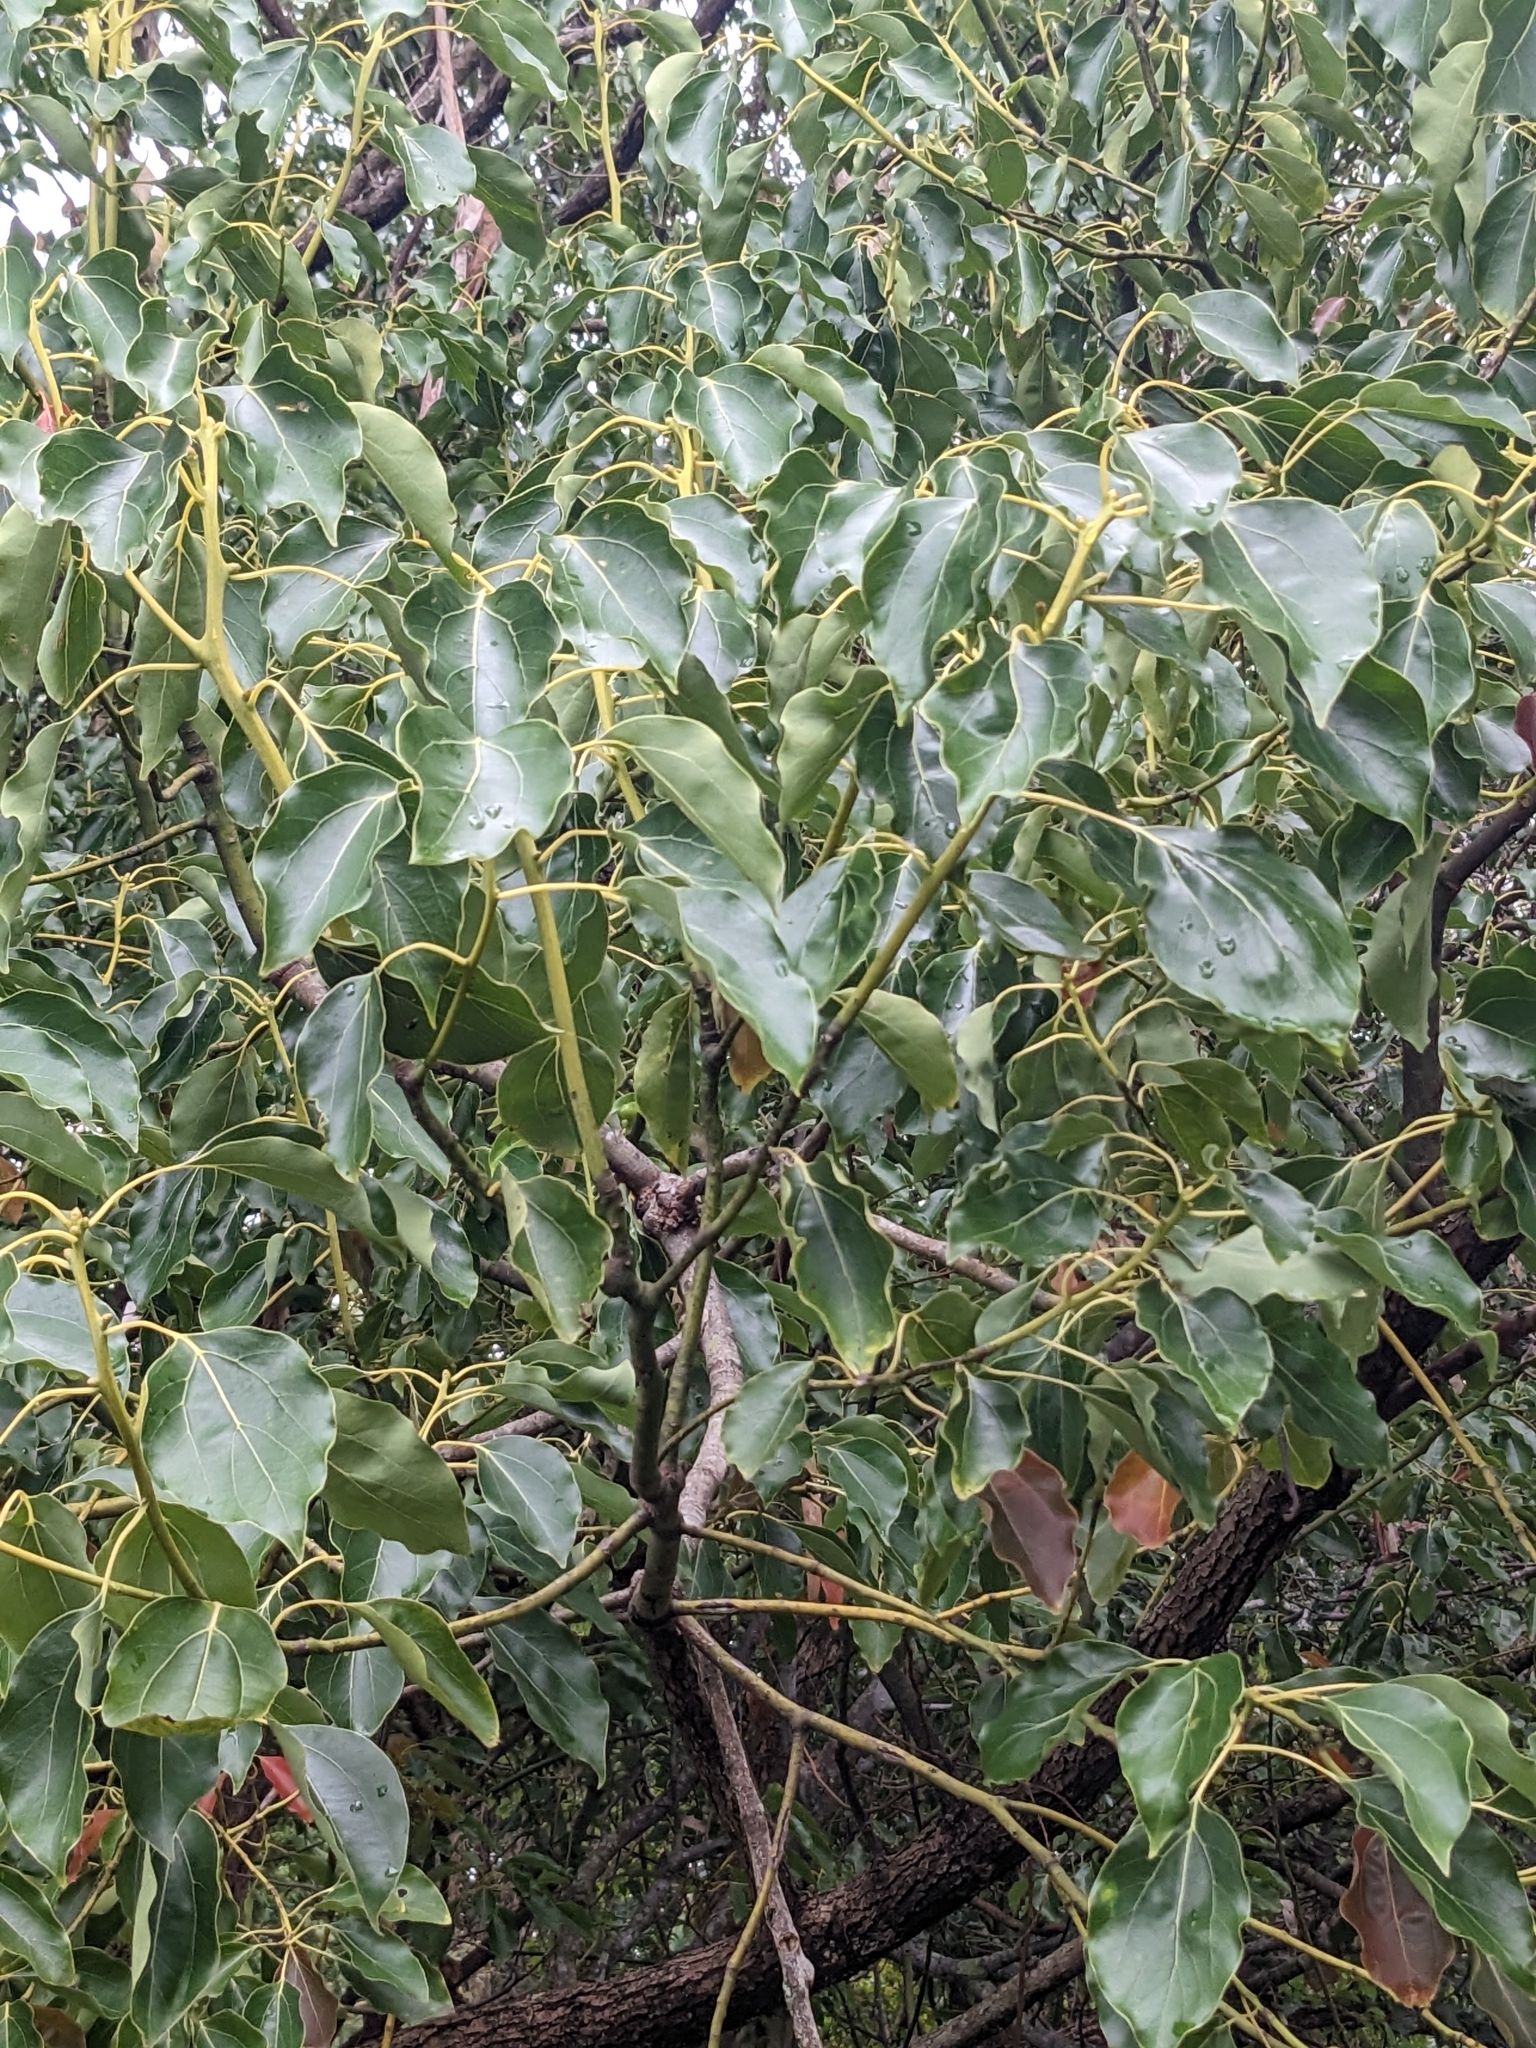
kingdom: Plantae
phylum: Tracheophyta
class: Magnoliopsida
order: Laurales
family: Lauraceae
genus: Cinnamomum
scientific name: Cinnamomum camphora
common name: Camphortree
